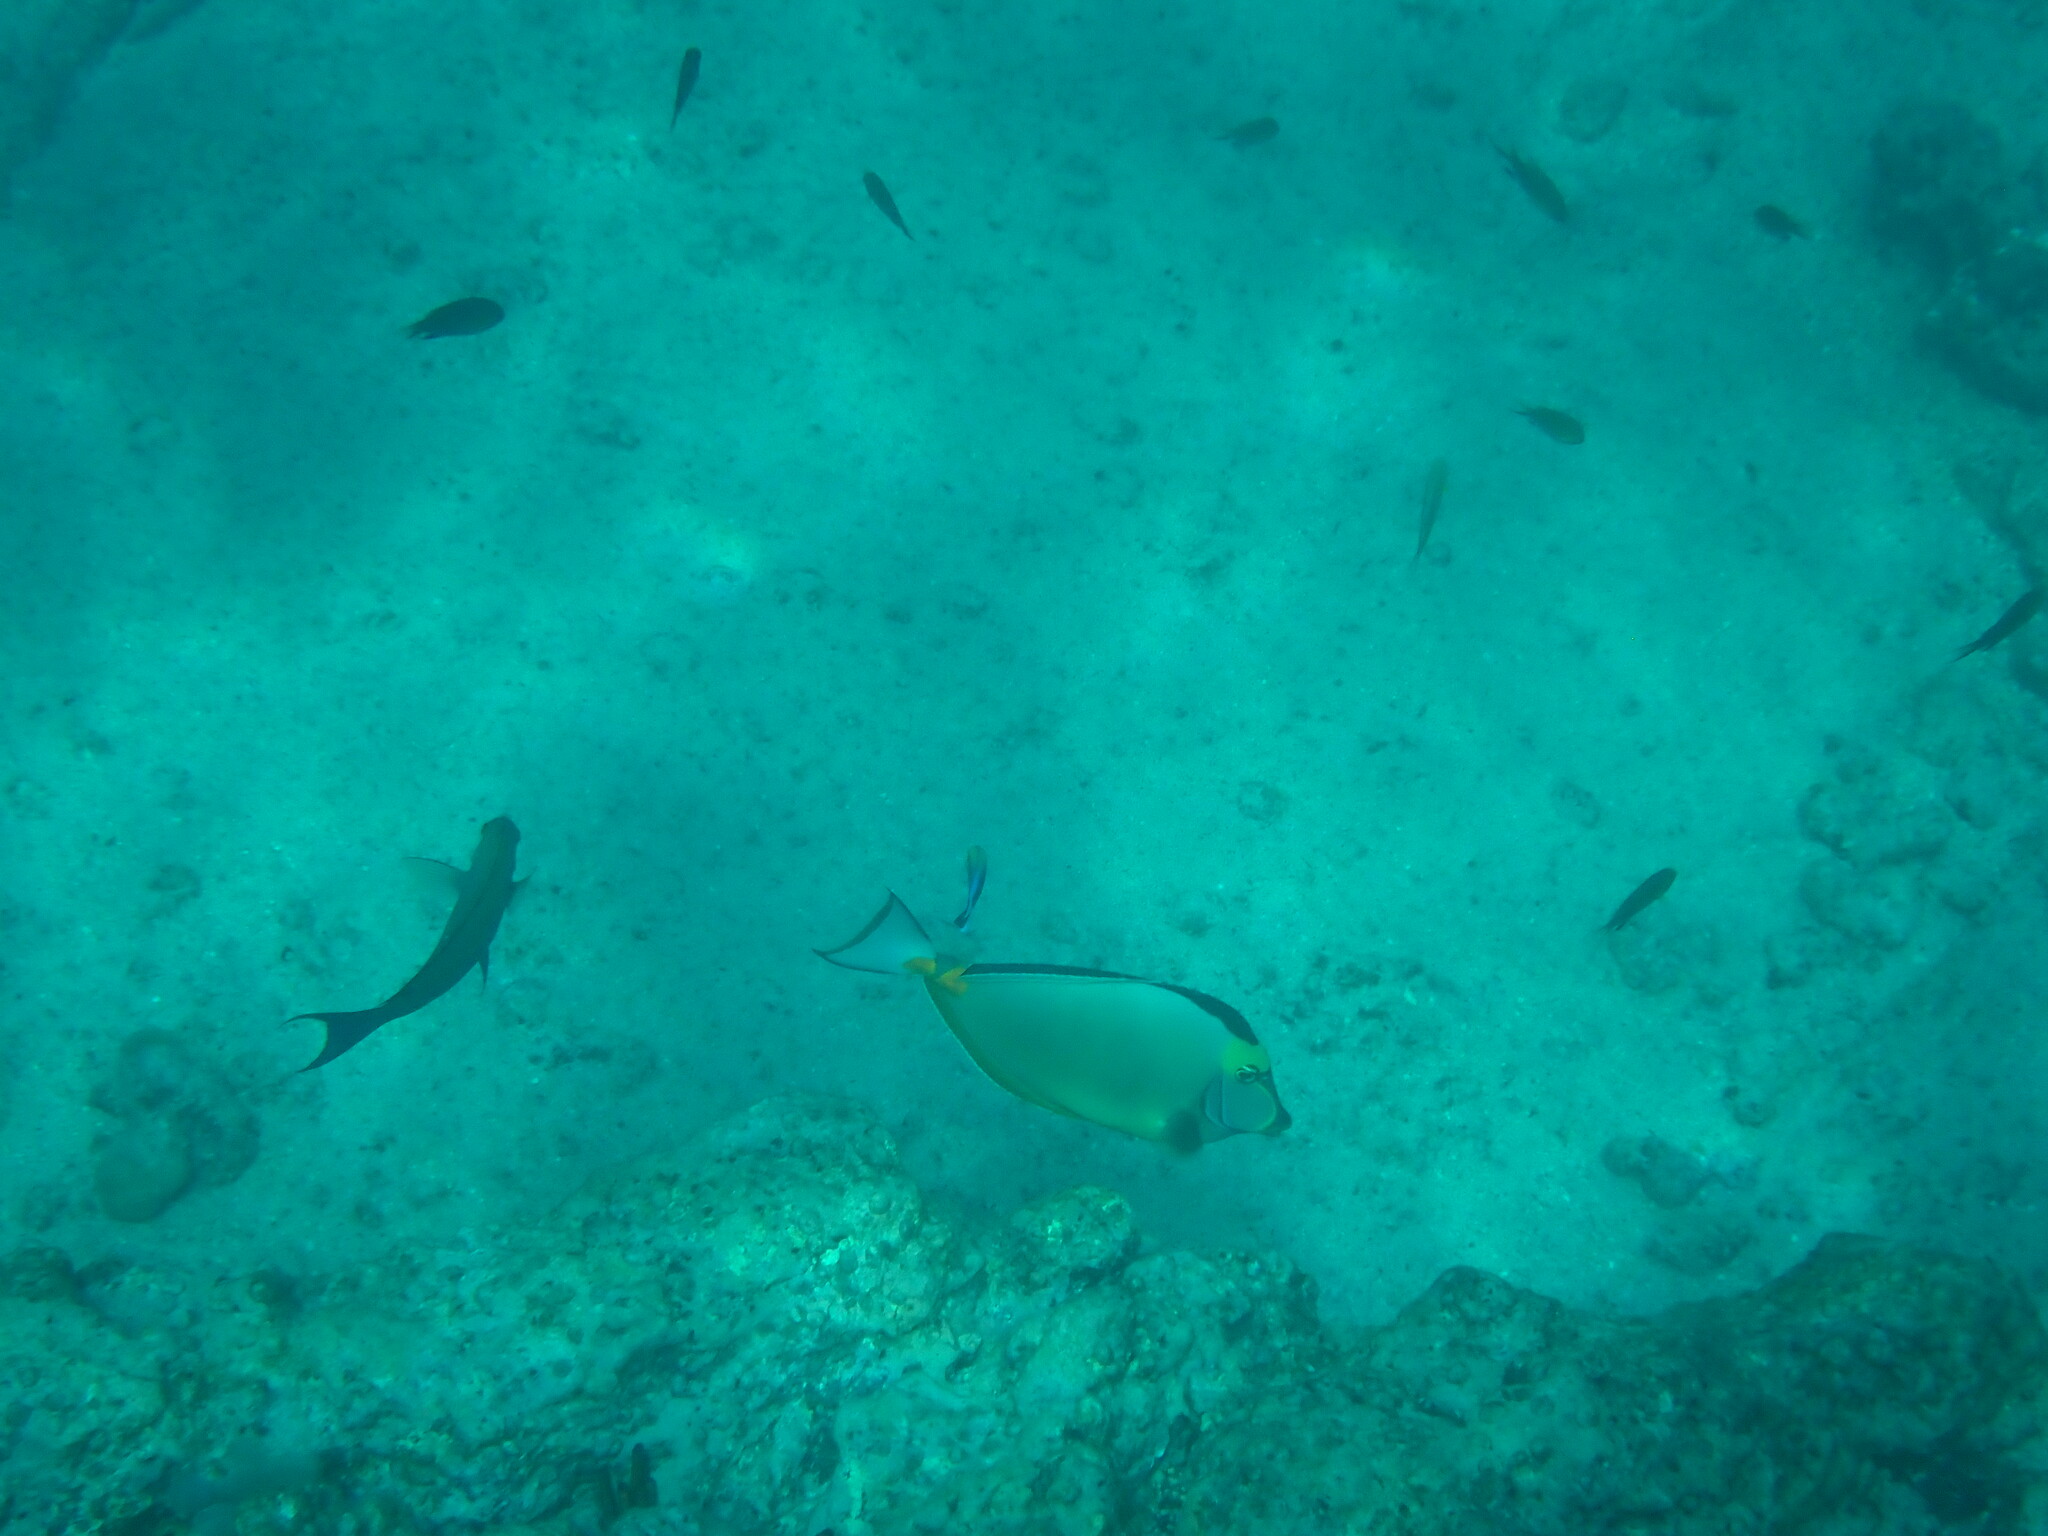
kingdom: Animalia
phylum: Chordata
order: Perciformes
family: Acanthuridae
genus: Naso
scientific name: Naso lituratus
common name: Orangespine unicornfish
